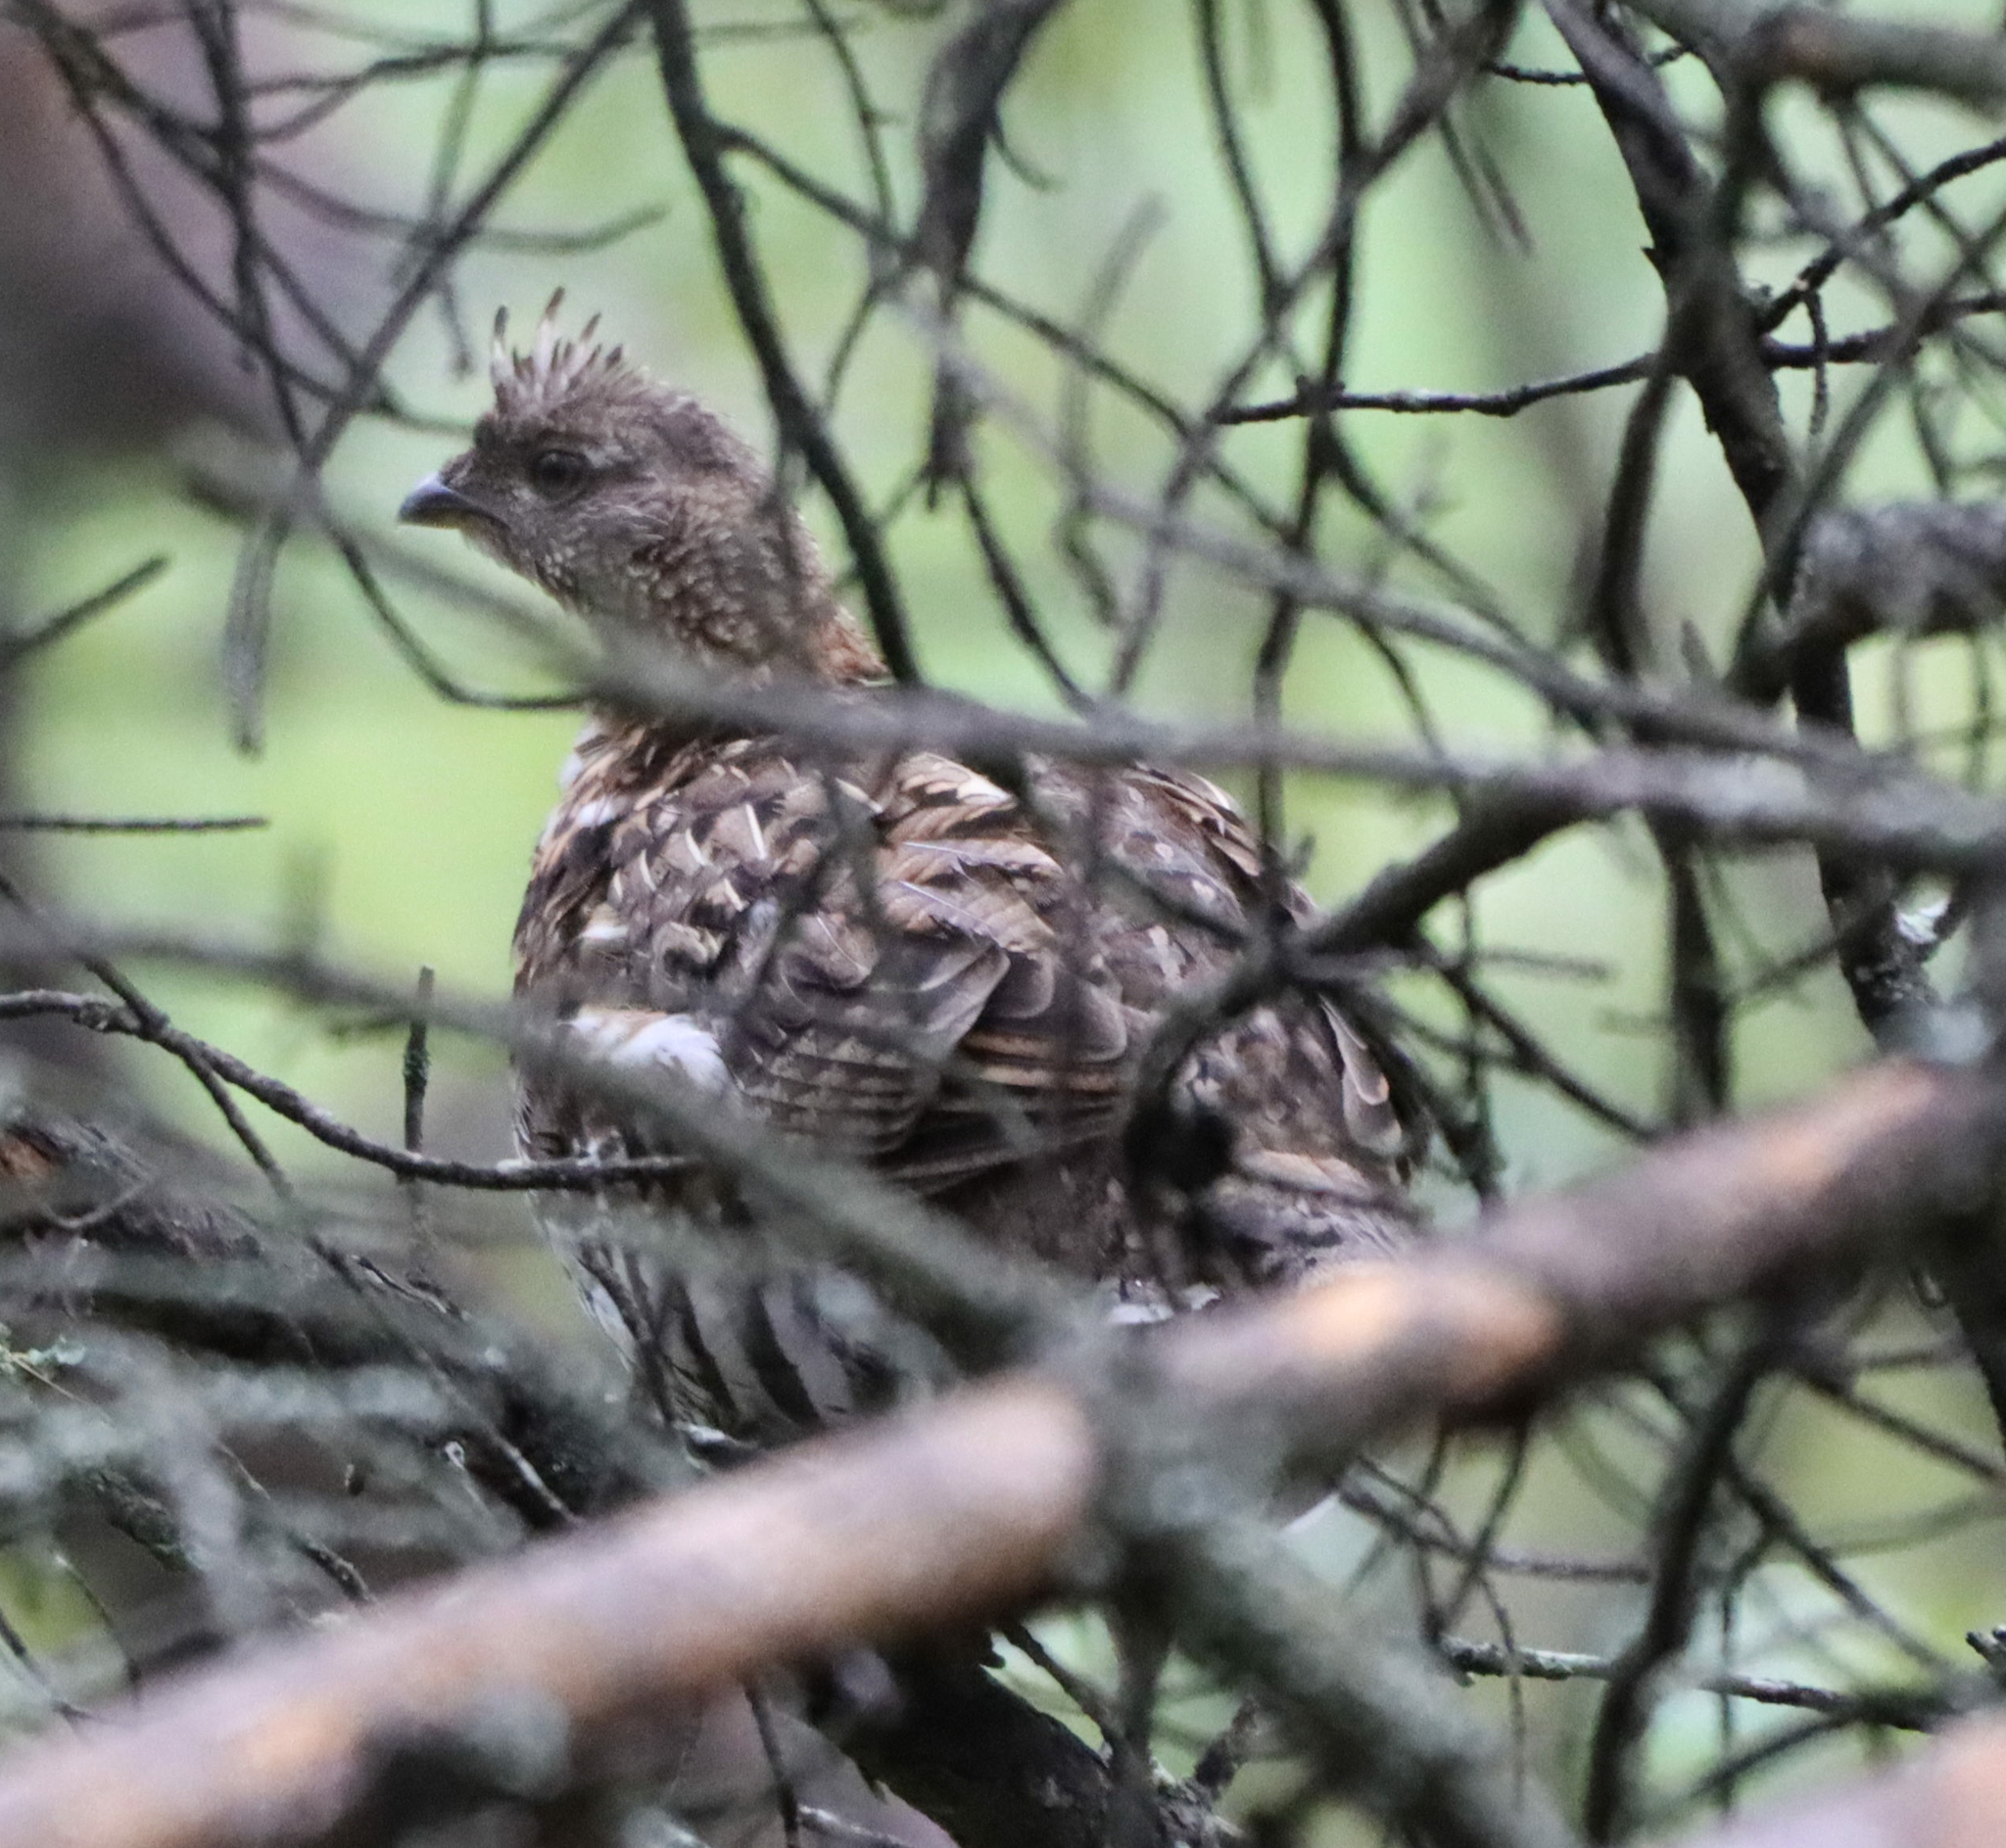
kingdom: Animalia
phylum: Chordata
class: Aves
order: Galliformes
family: Phasianidae
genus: Bonasa
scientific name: Bonasa umbellus
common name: Ruffed grouse
